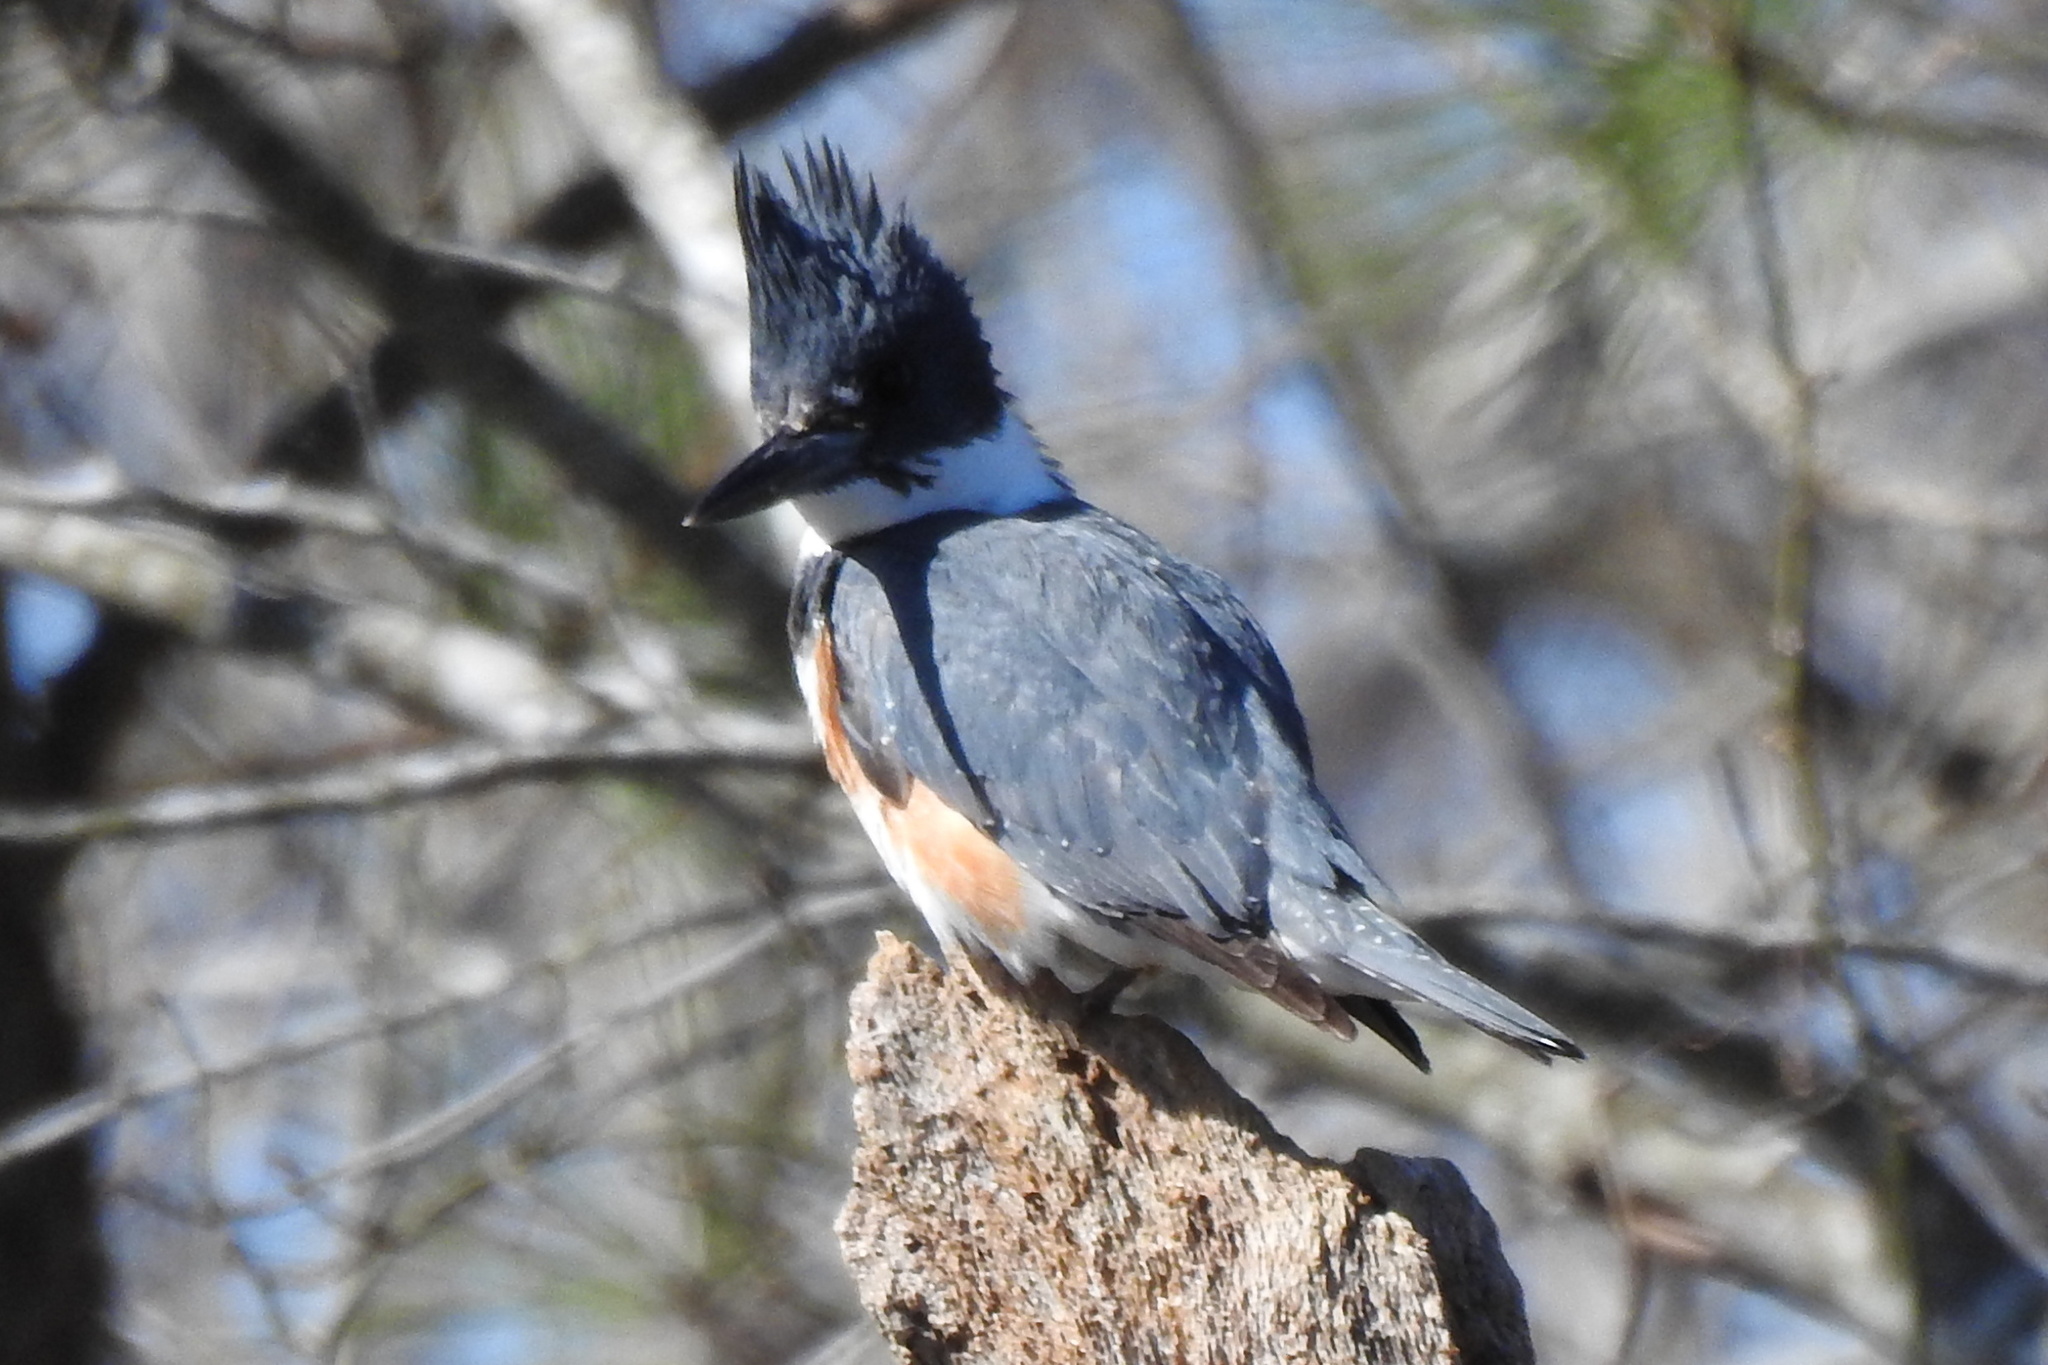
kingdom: Animalia
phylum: Chordata
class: Aves
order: Coraciiformes
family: Alcedinidae
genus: Megaceryle
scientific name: Megaceryle alcyon
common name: Belted kingfisher
